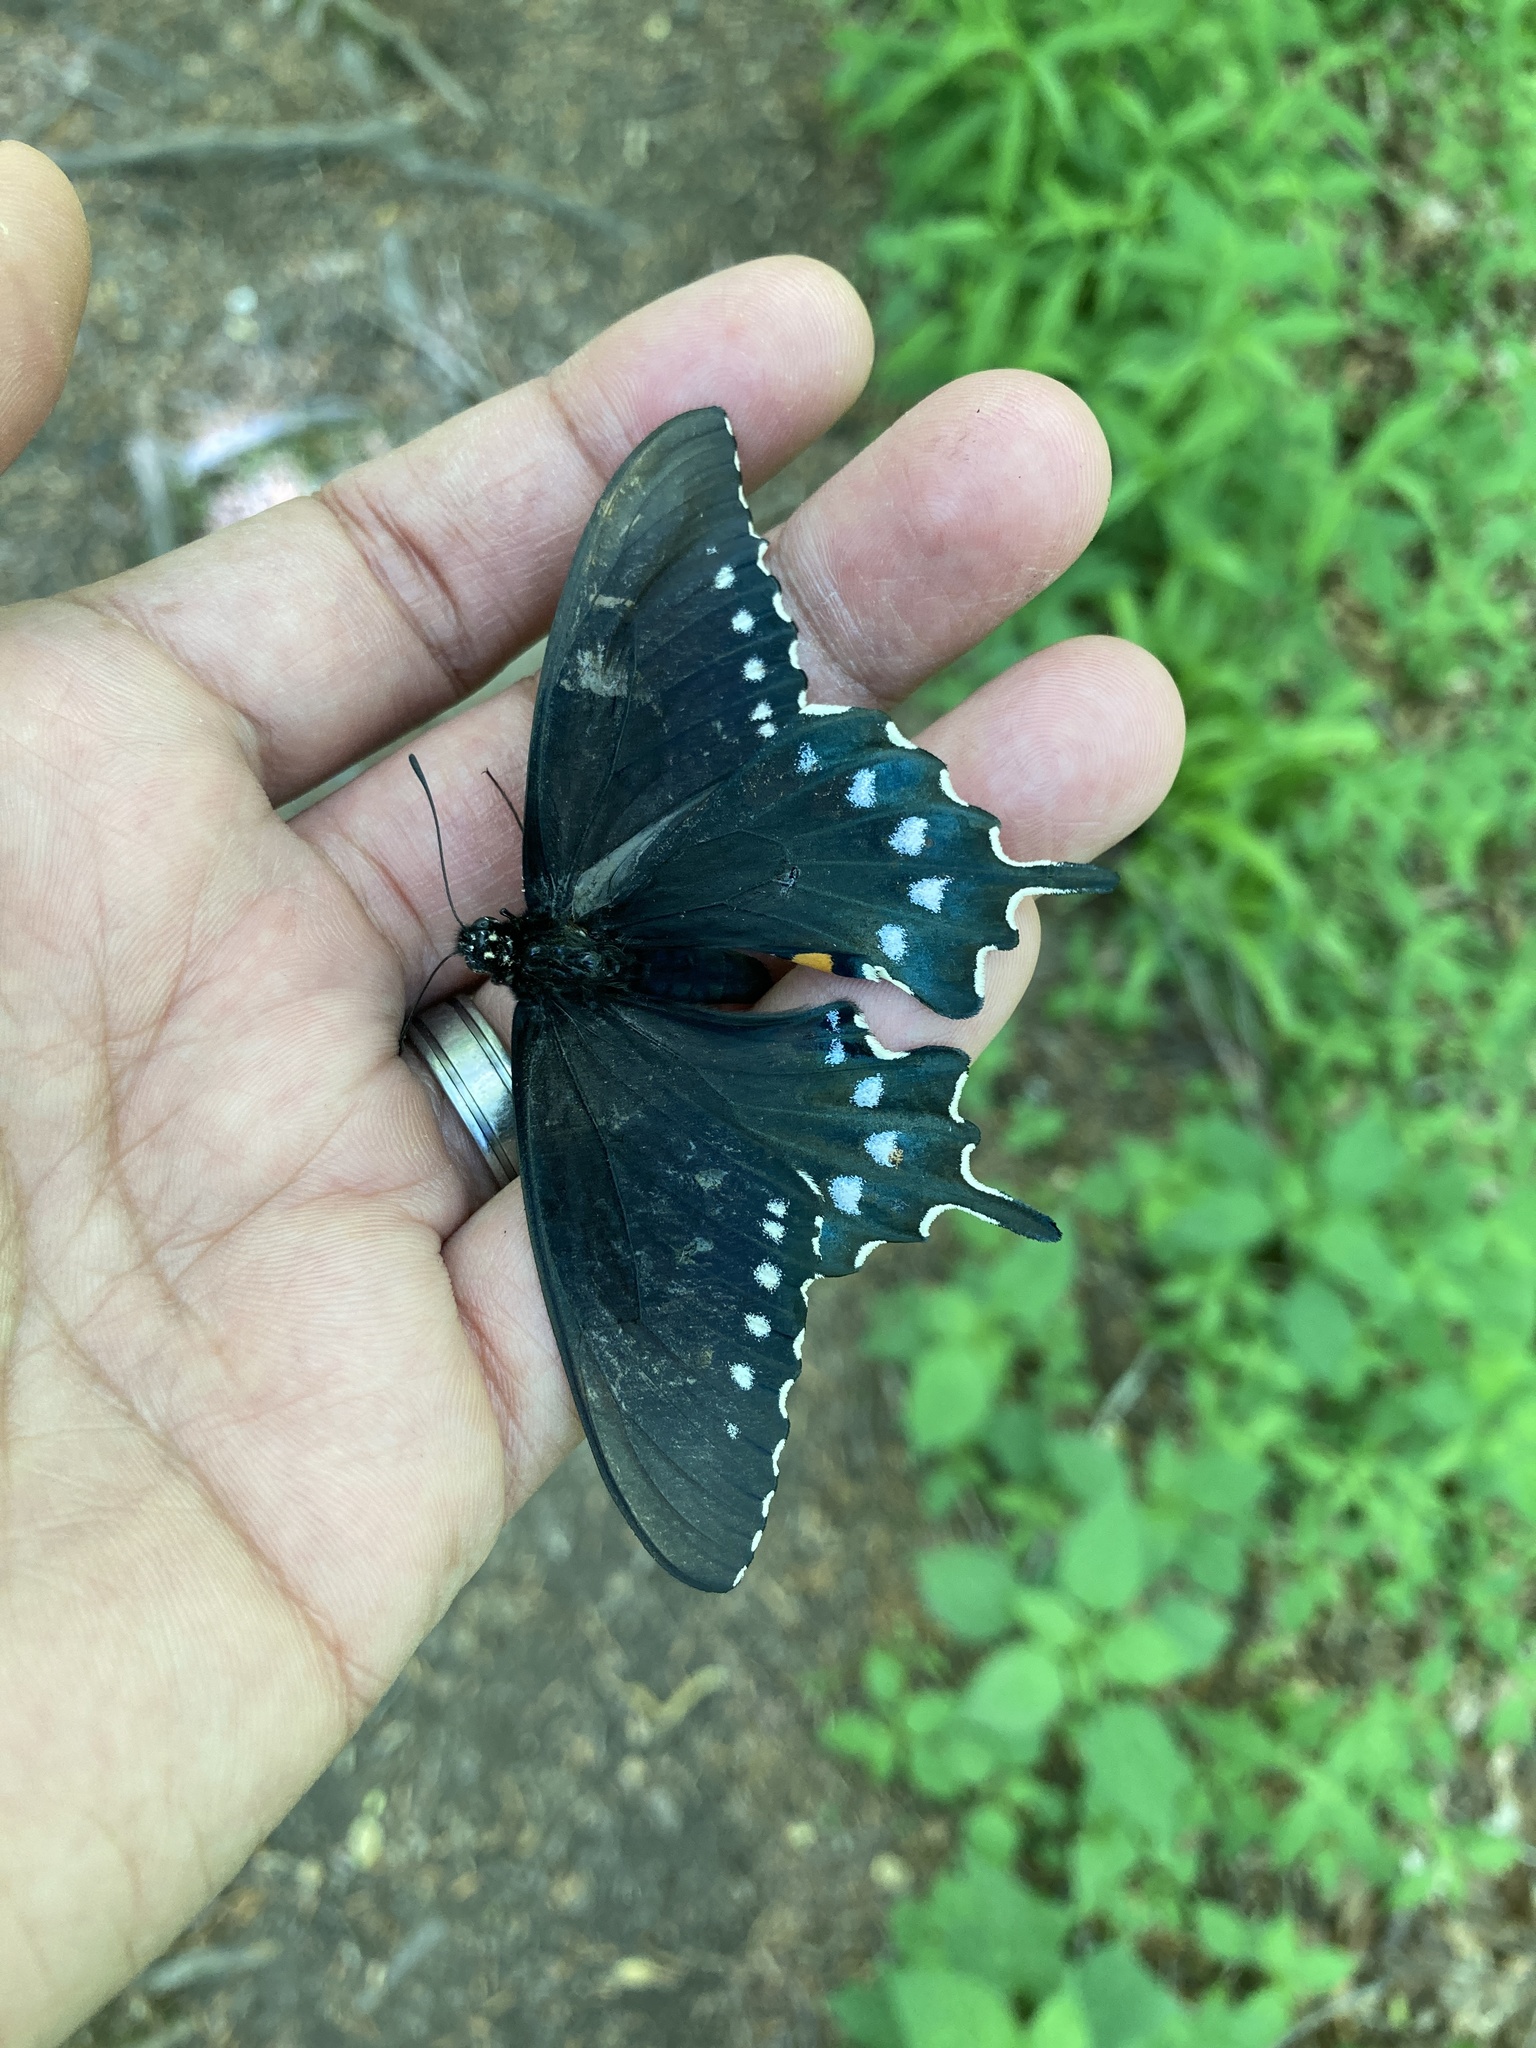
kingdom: Animalia
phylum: Arthropoda
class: Insecta
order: Lepidoptera
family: Papilionidae
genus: Battus
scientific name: Battus philenor
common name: Pipevine swallowtail
